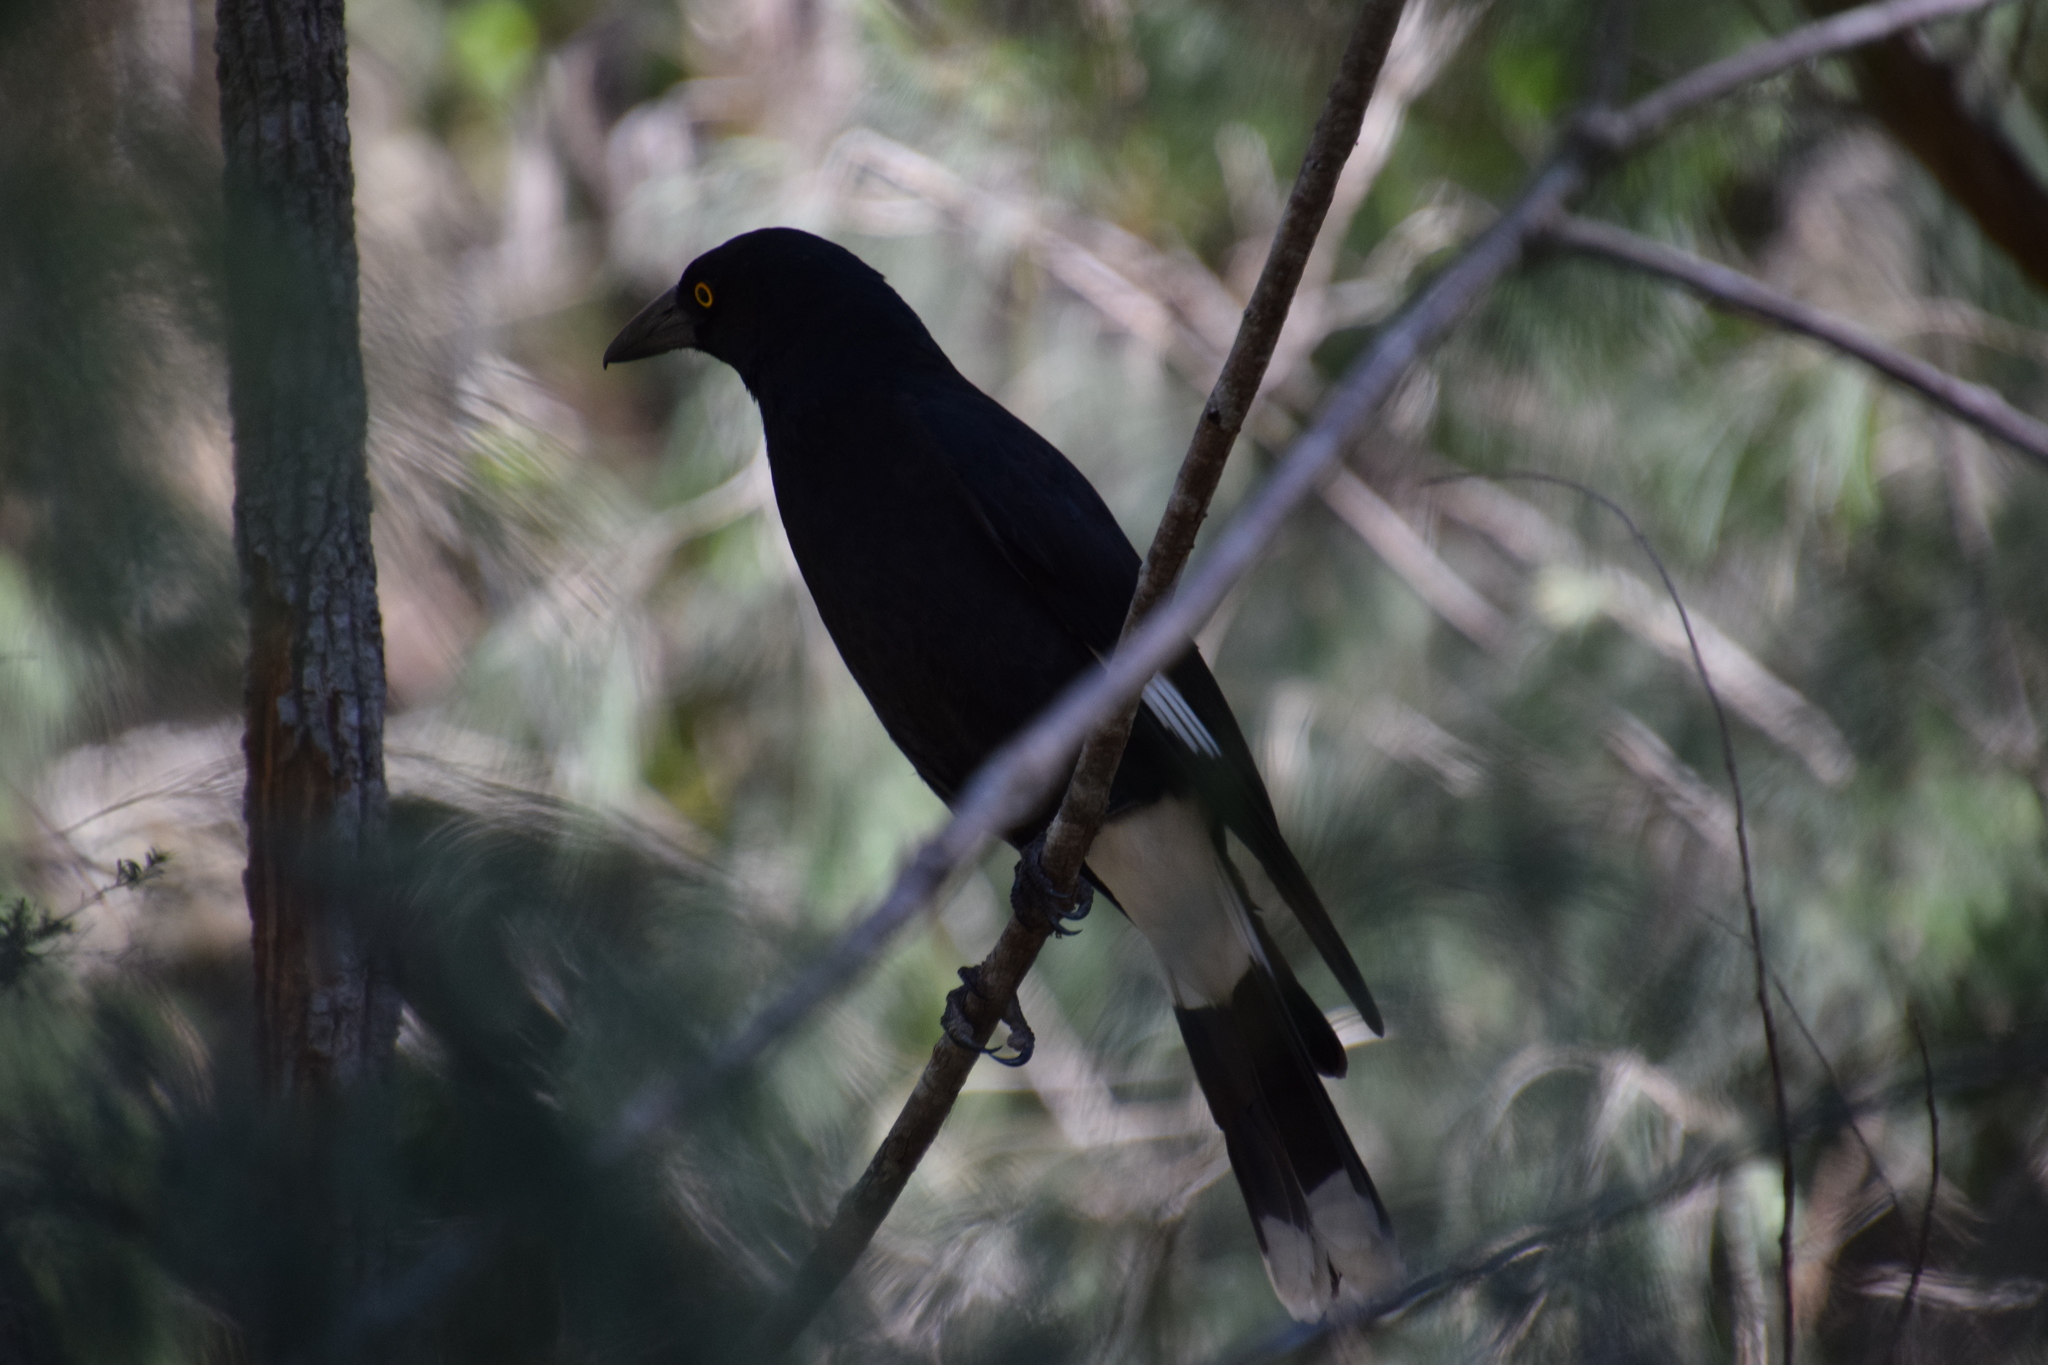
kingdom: Animalia
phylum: Chordata
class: Aves
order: Passeriformes
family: Cracticidae
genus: Strepera
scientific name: Strepera graculina
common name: Pied currawong
